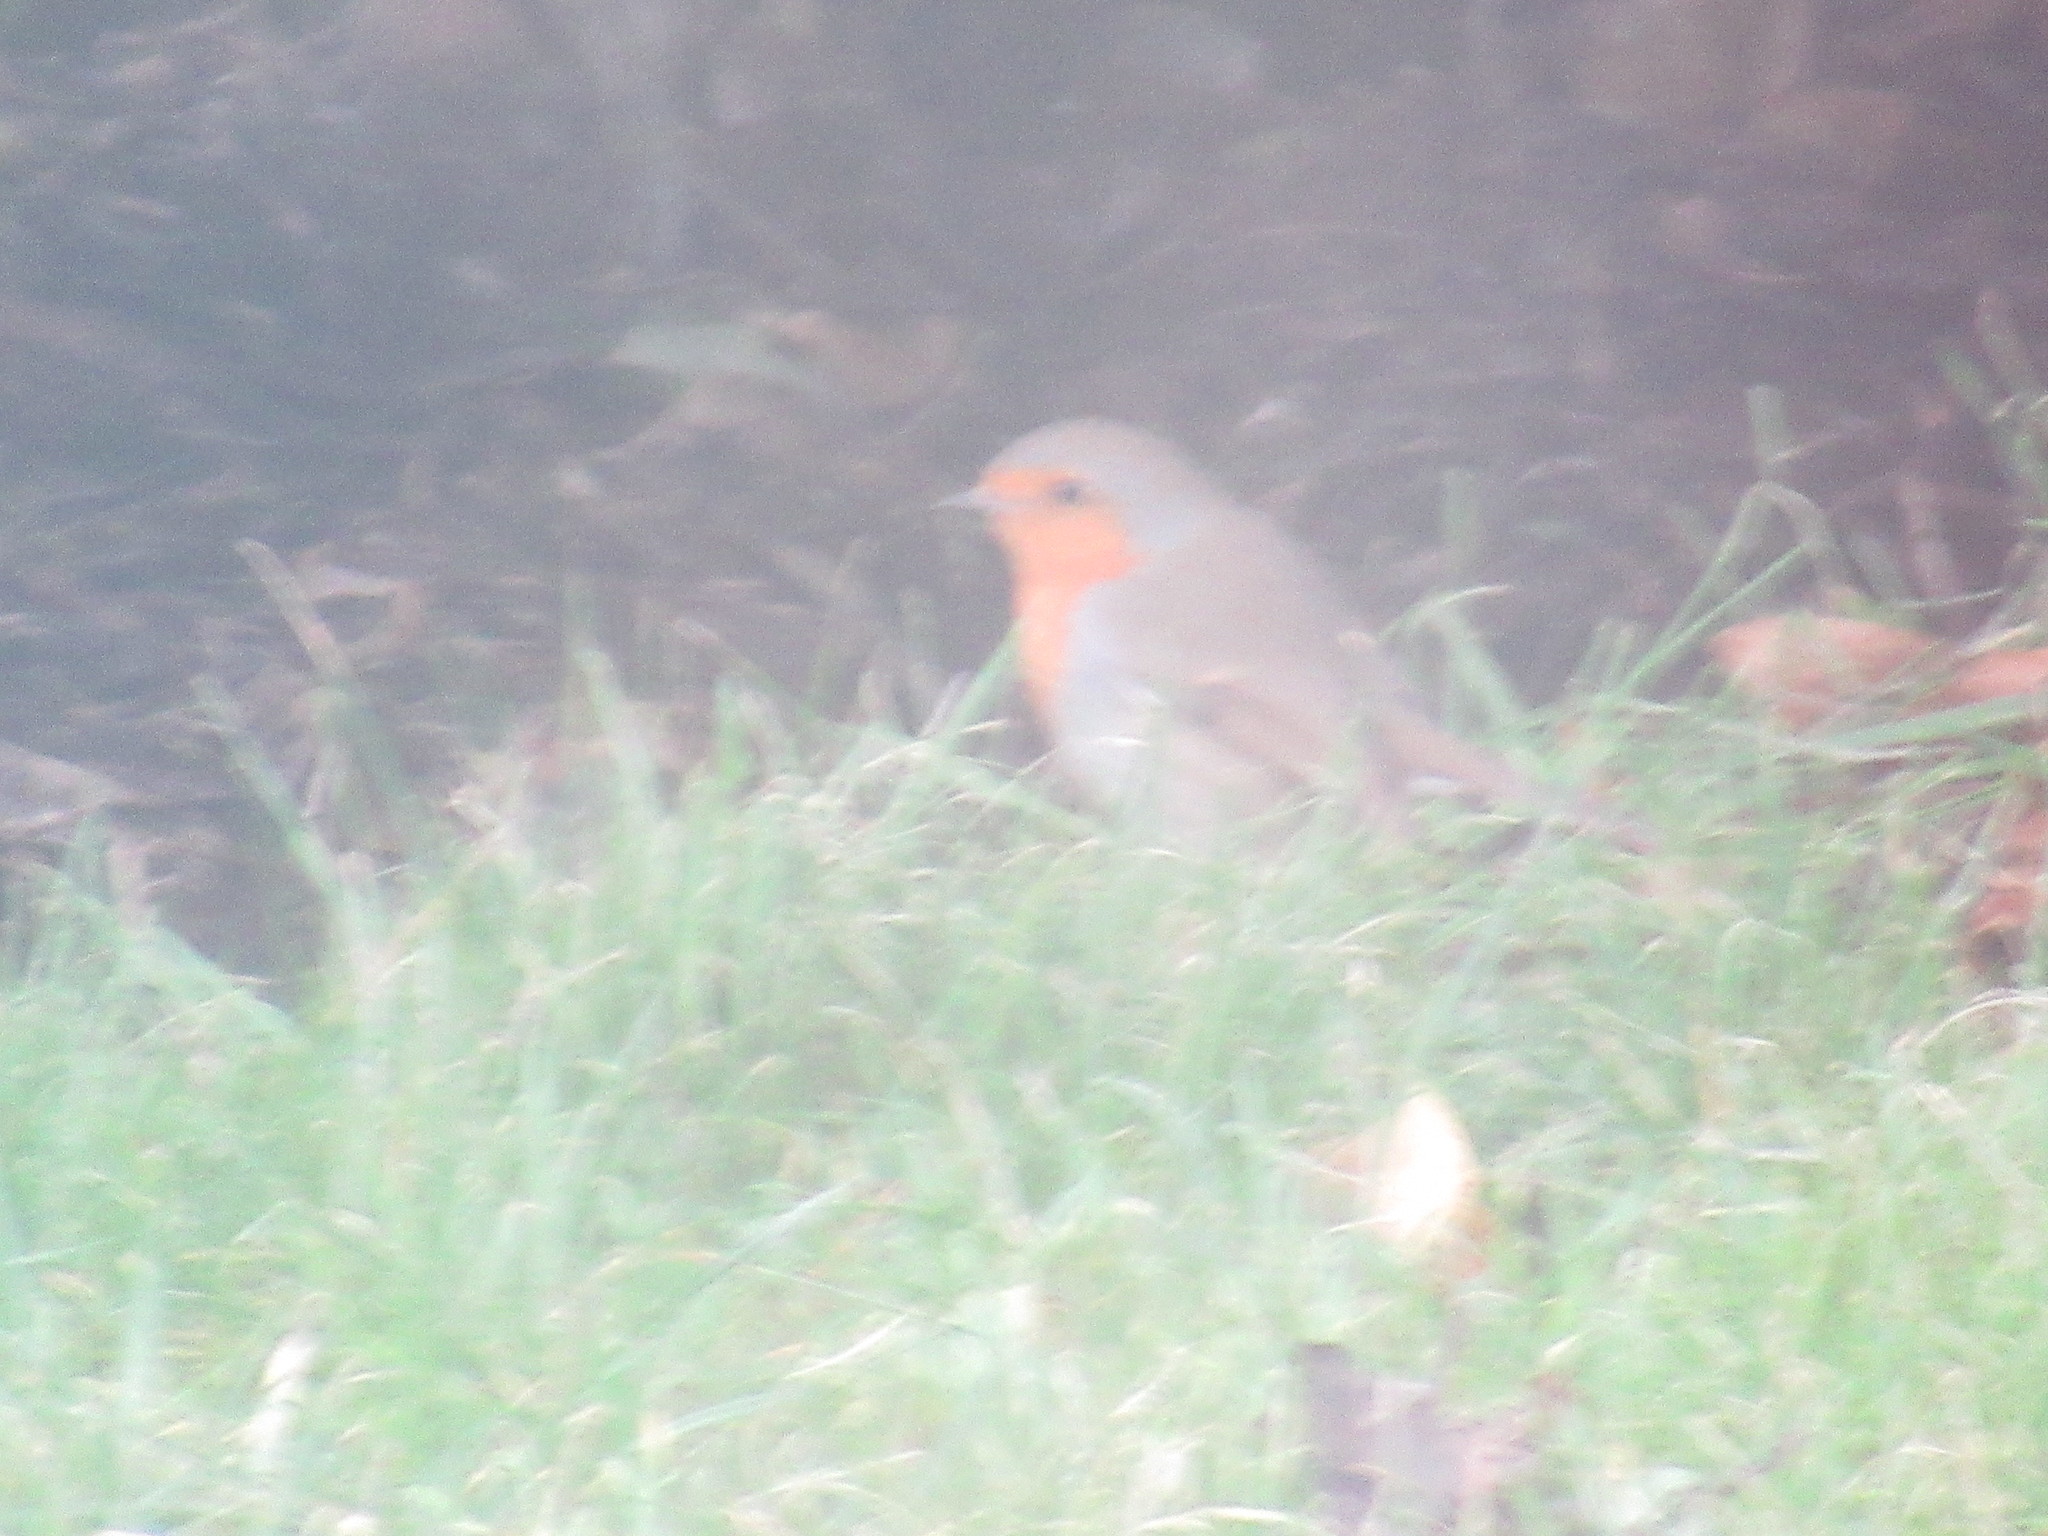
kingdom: Animalia
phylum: Chordata
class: Aves
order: Passeriformes
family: Muscicapidae
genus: Erithacus
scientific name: Erithacus rubecula
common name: European robin
